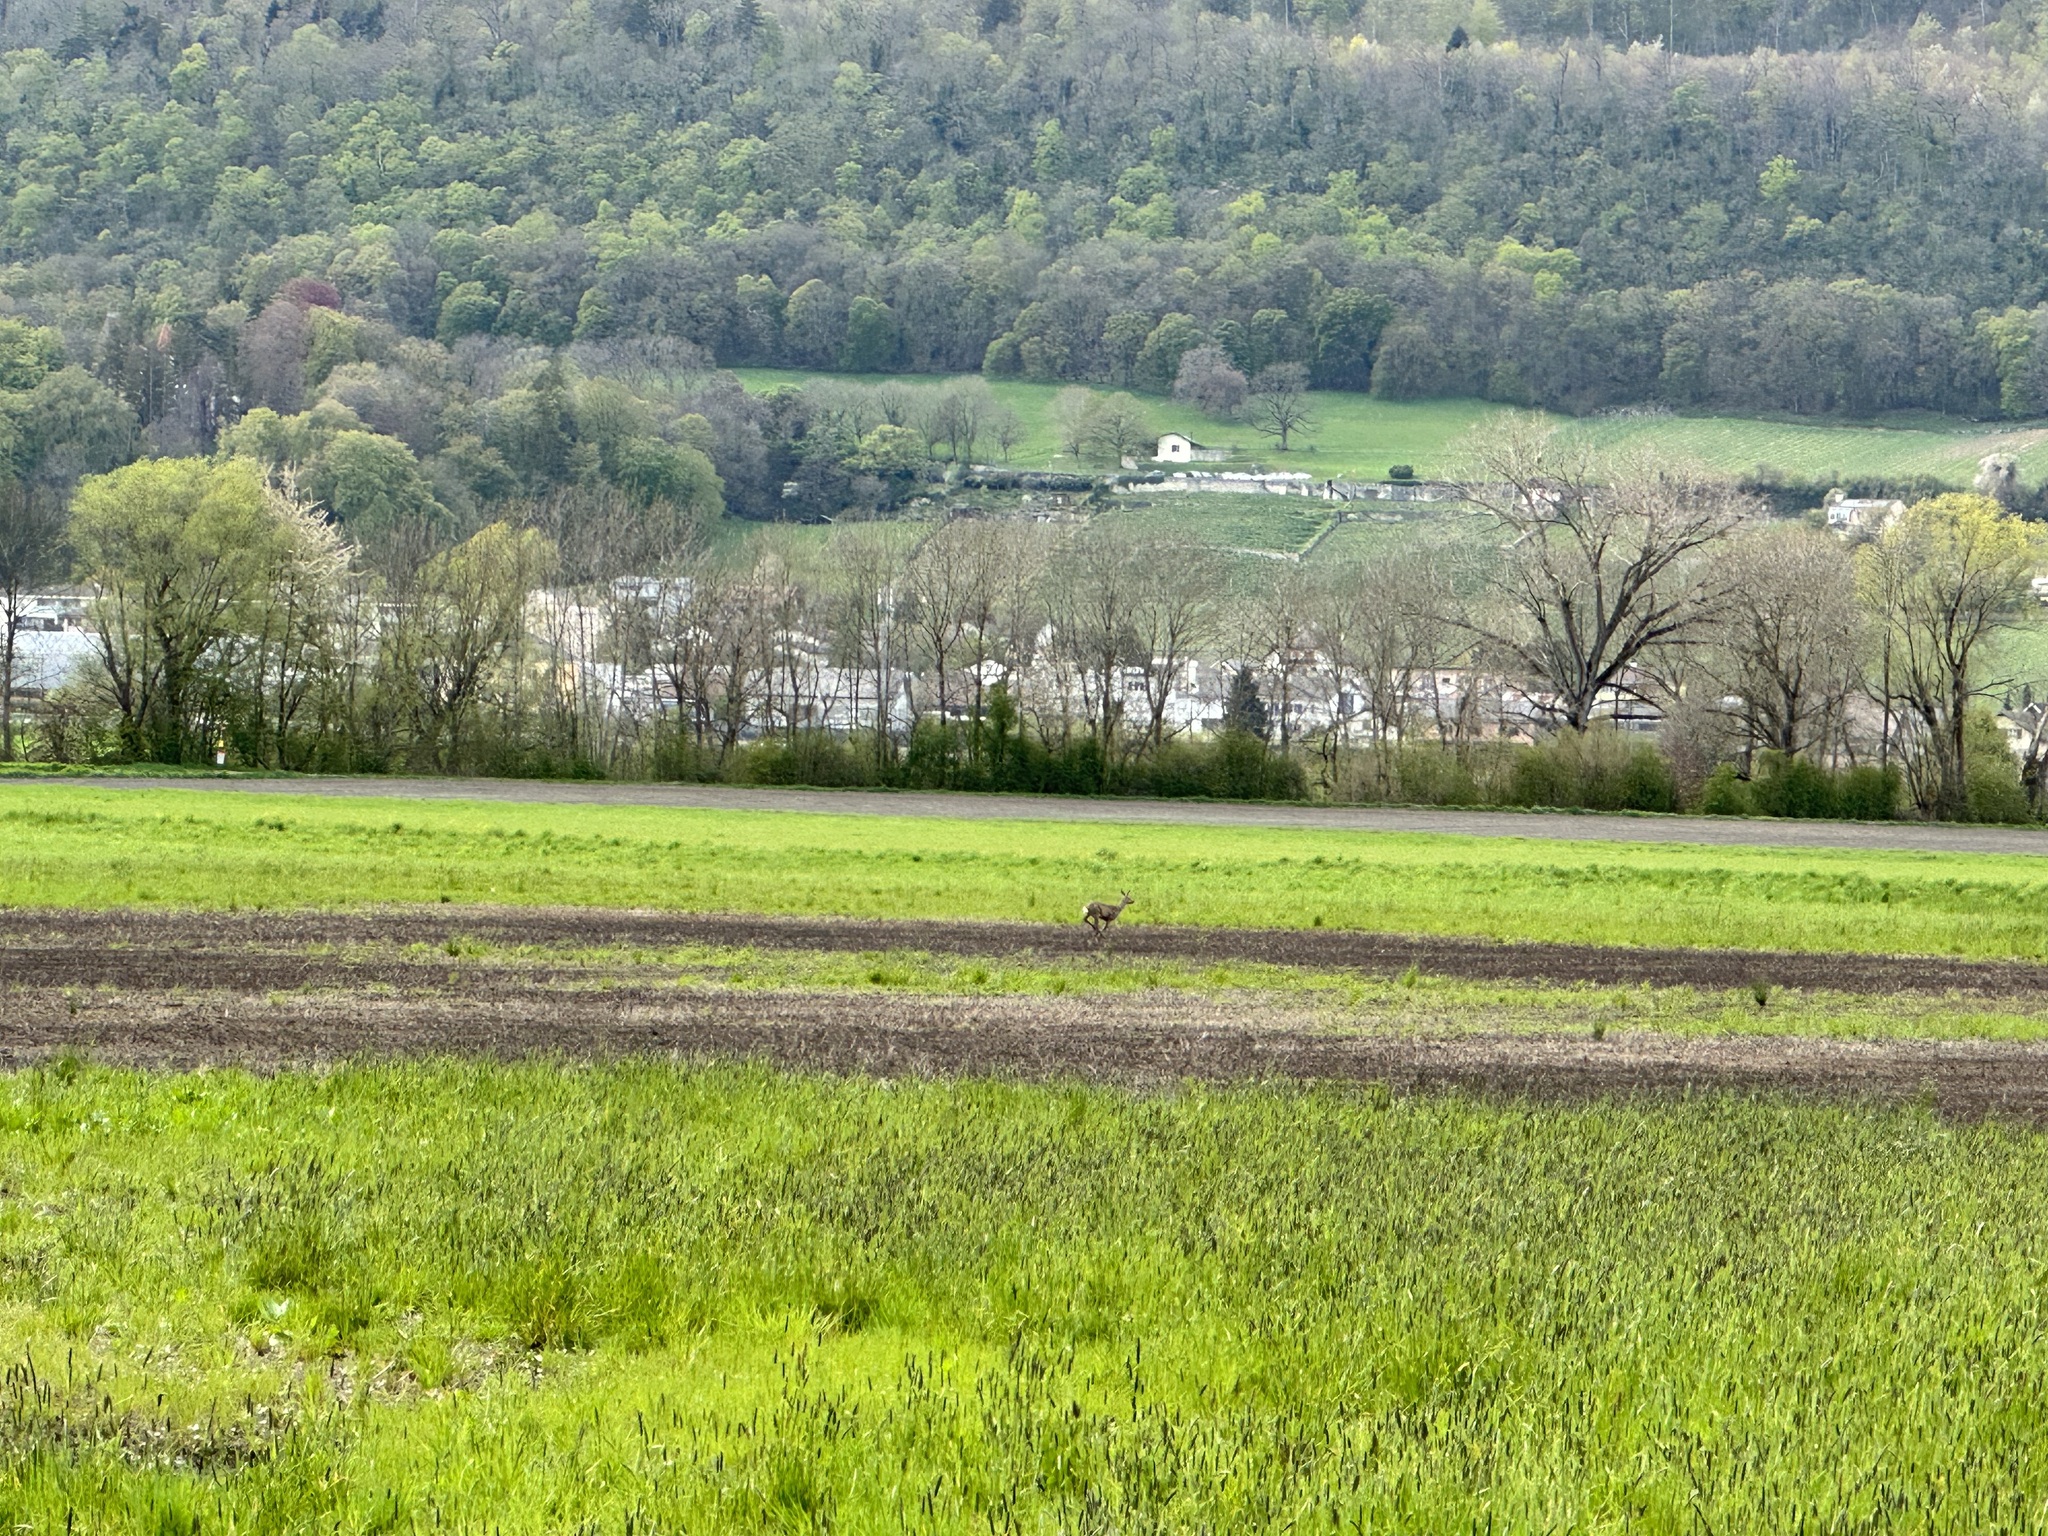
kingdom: Animalia
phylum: Chordata
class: Mammalia
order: Artiodactyla
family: Cervidae
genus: Capreolus
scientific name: Capreolus capreolus
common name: Western roe deer
